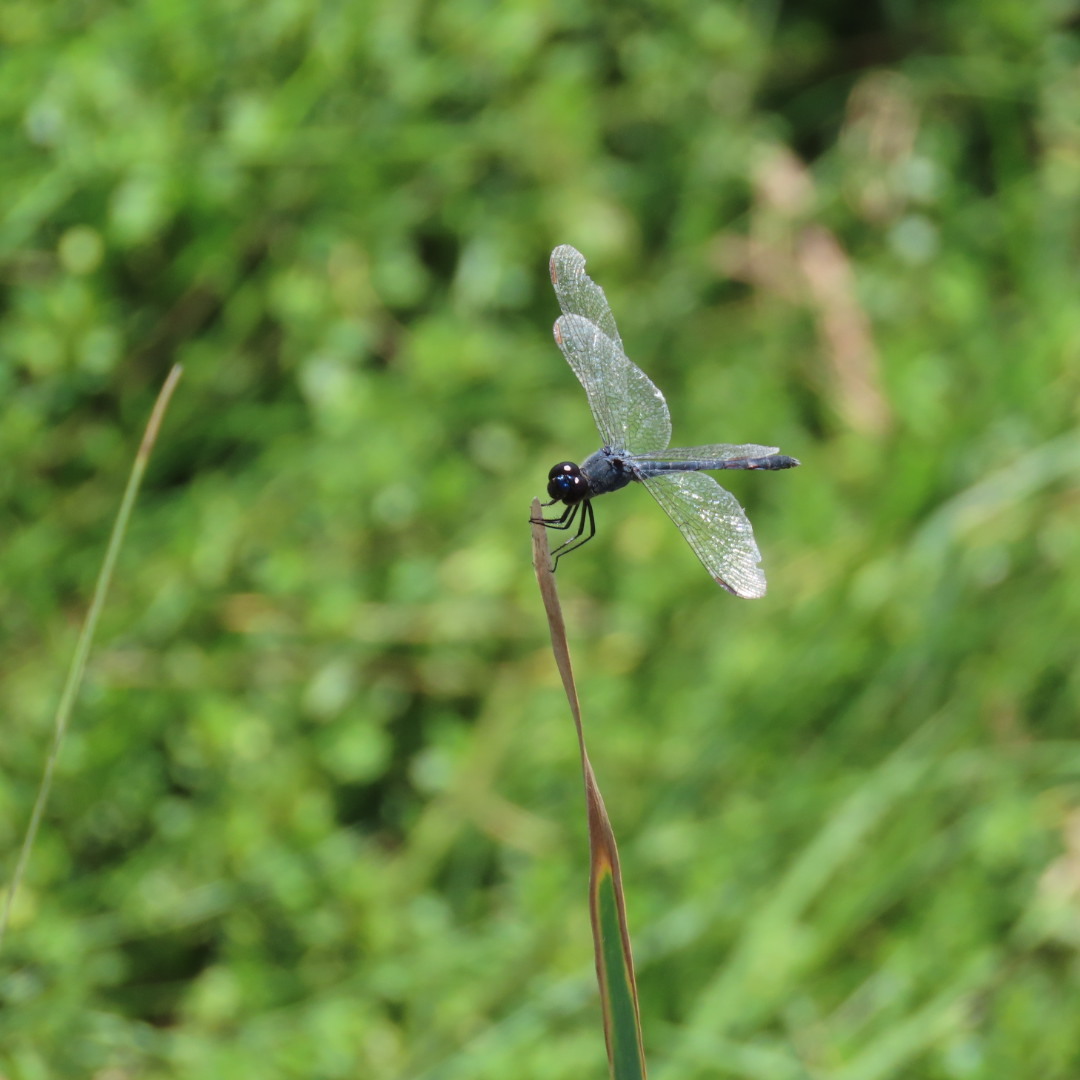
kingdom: Animalia
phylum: Arthropoda
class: Insecta
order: Odonata
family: Libellulidae
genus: Erythrodiplax
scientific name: Erythrodiplax berenice
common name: Seaside dragonlet
